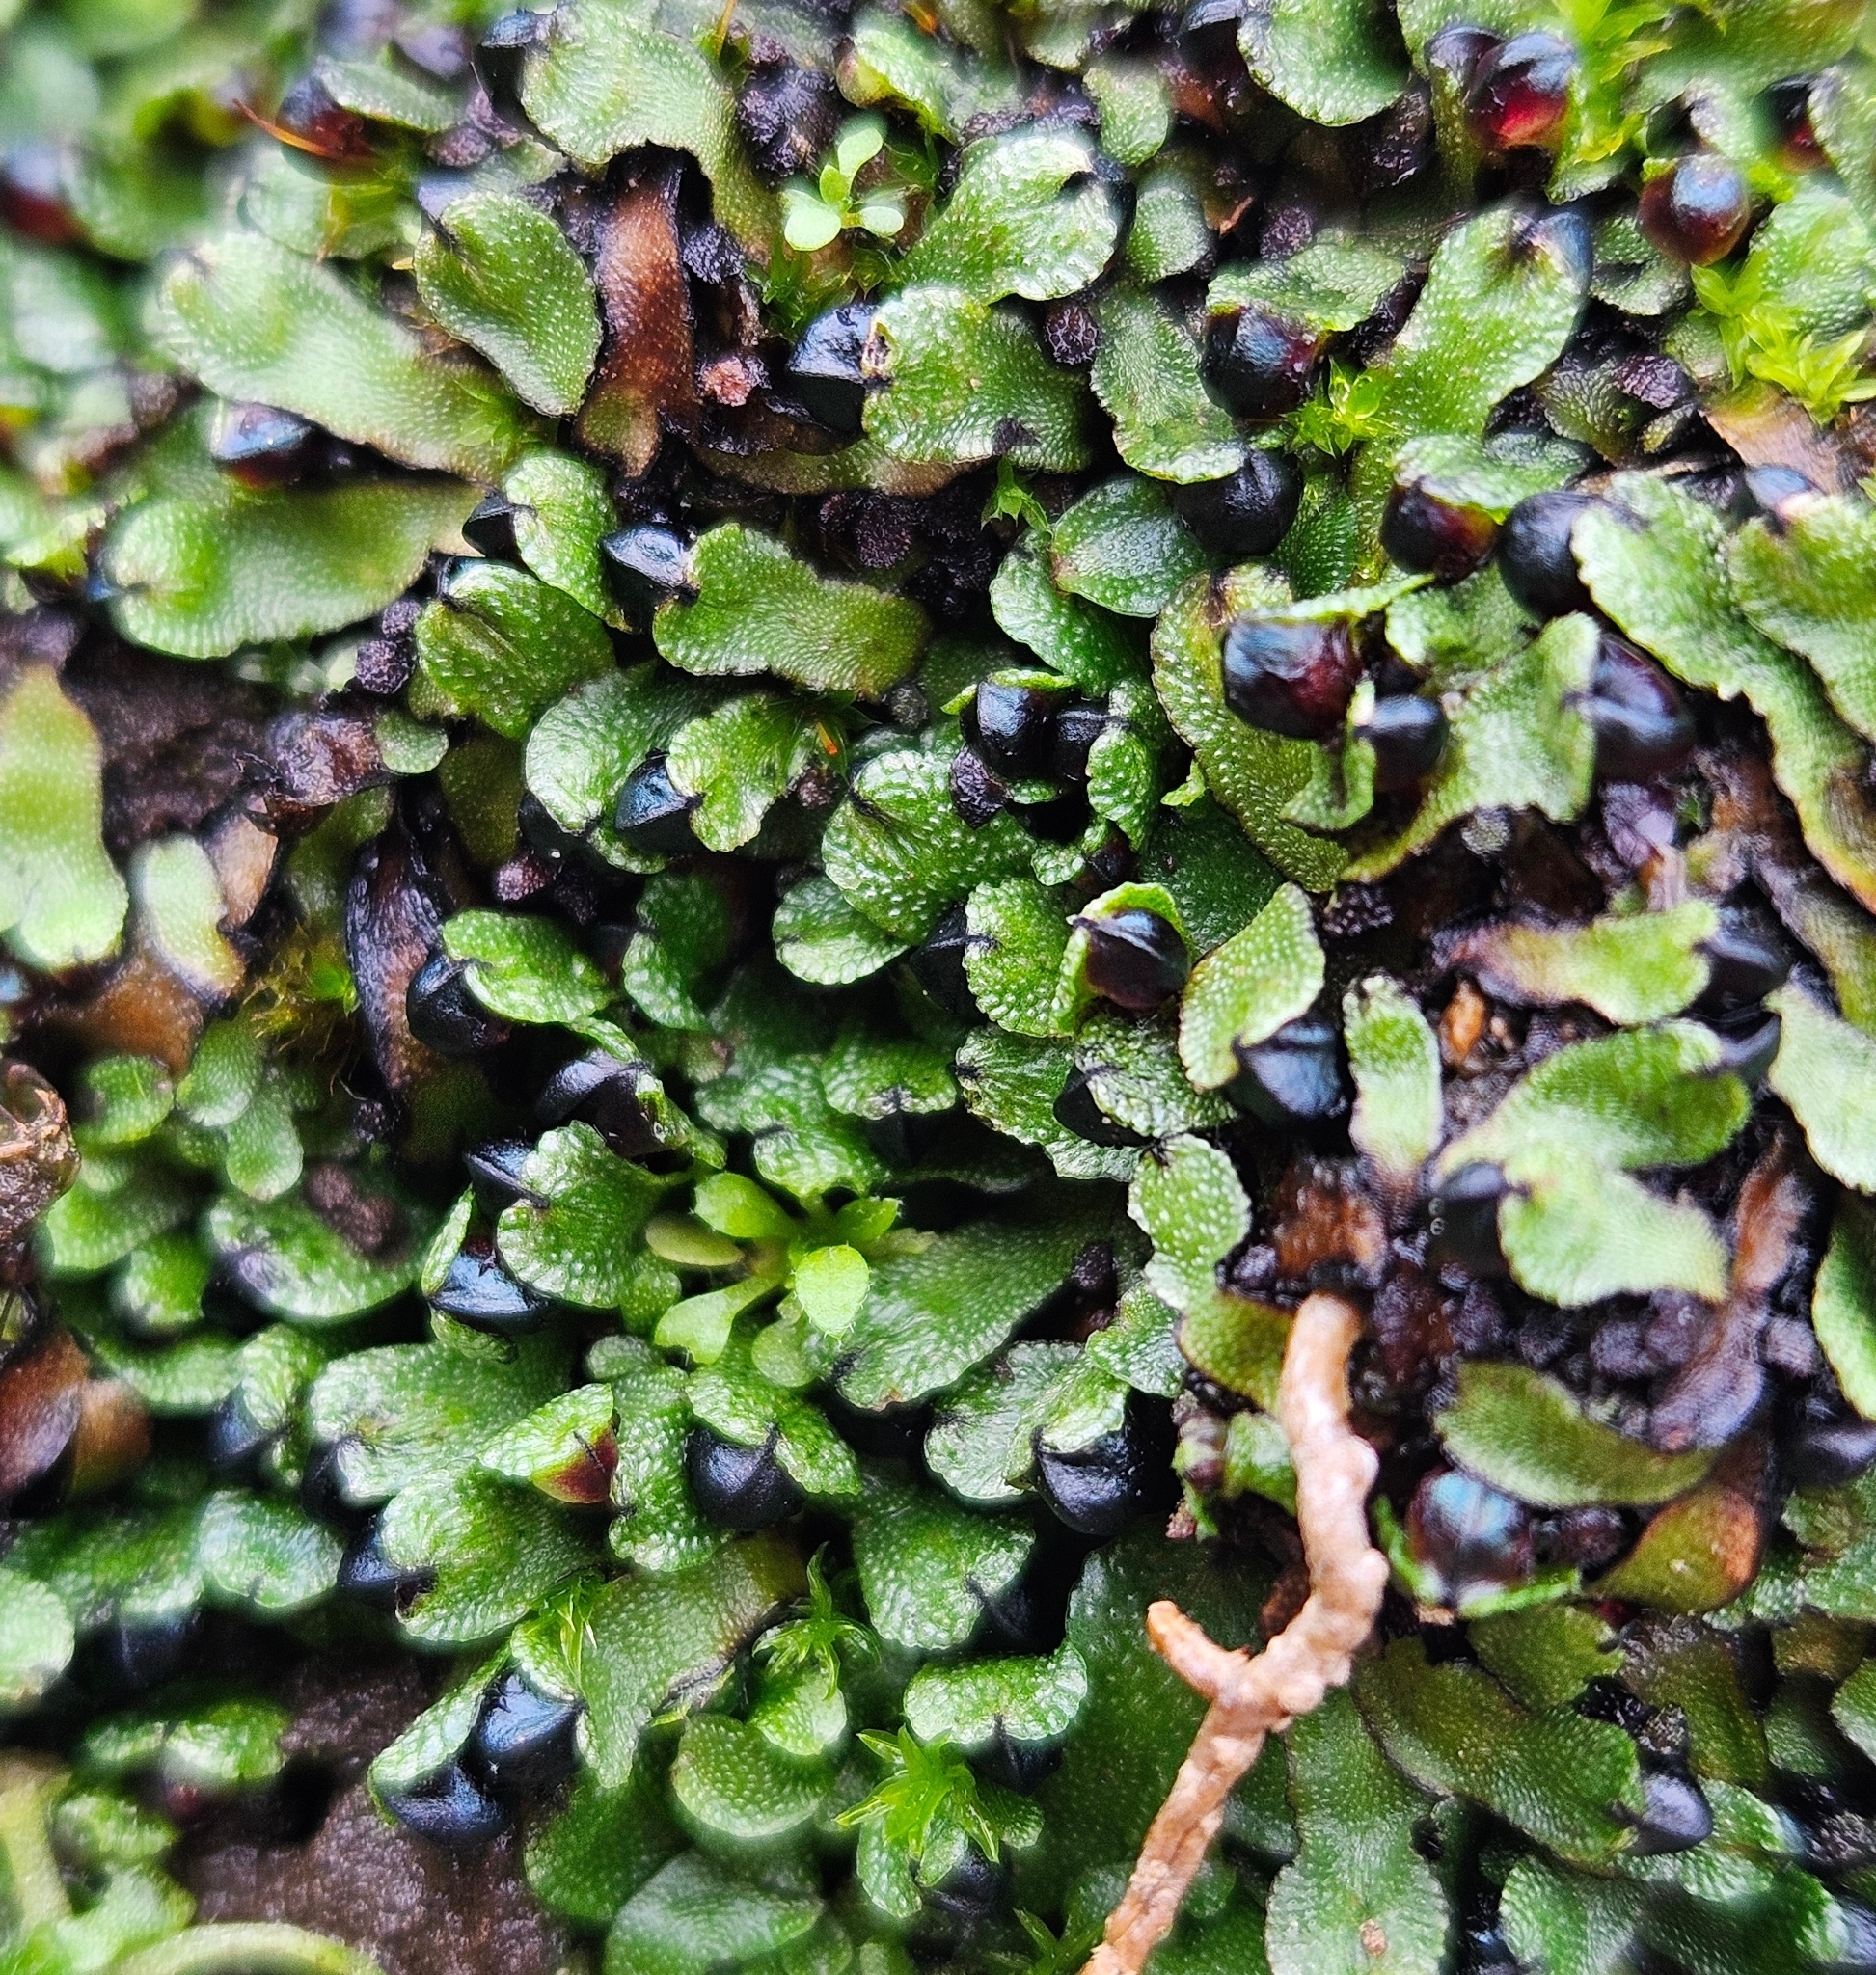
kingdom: Plantae
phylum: Marchantiophyta
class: Marchantiopsida
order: Marchantiales
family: Targioniaceae
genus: Targionia
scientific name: Targionia hypophylla
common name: Orobus-seed liverwort
